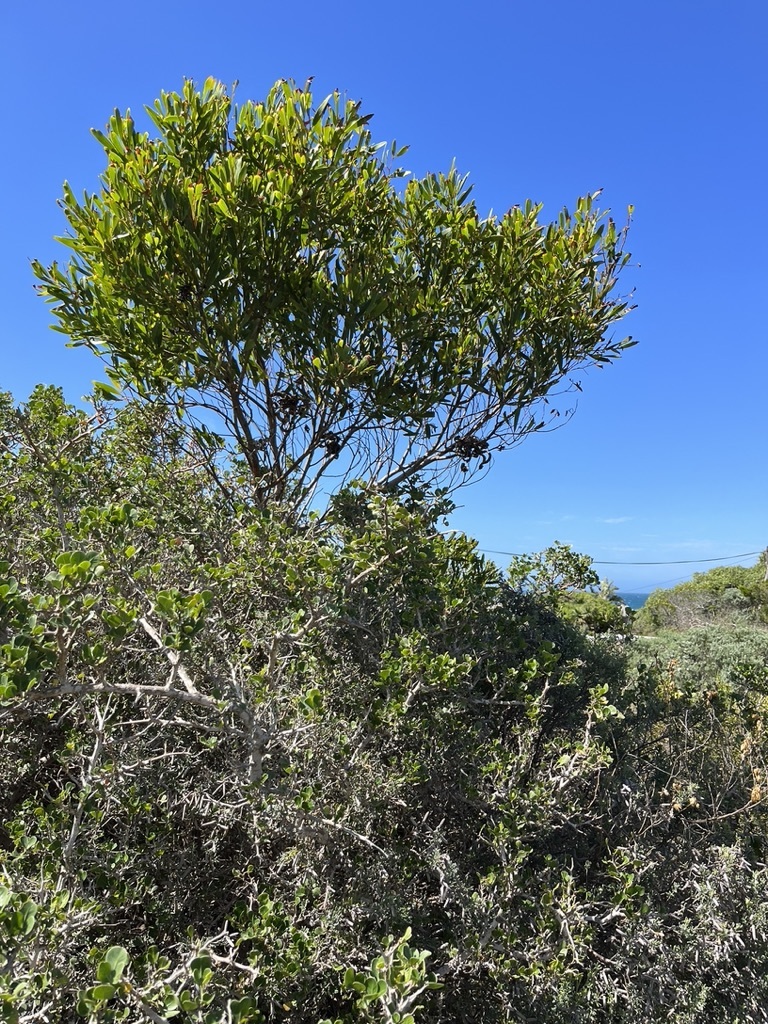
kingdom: Plantae
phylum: Tracheophyta
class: Magnoliopsida
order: Fabales
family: Fabaceae
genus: Acacia
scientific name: Acacia cyclops
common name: Coastal wattle
